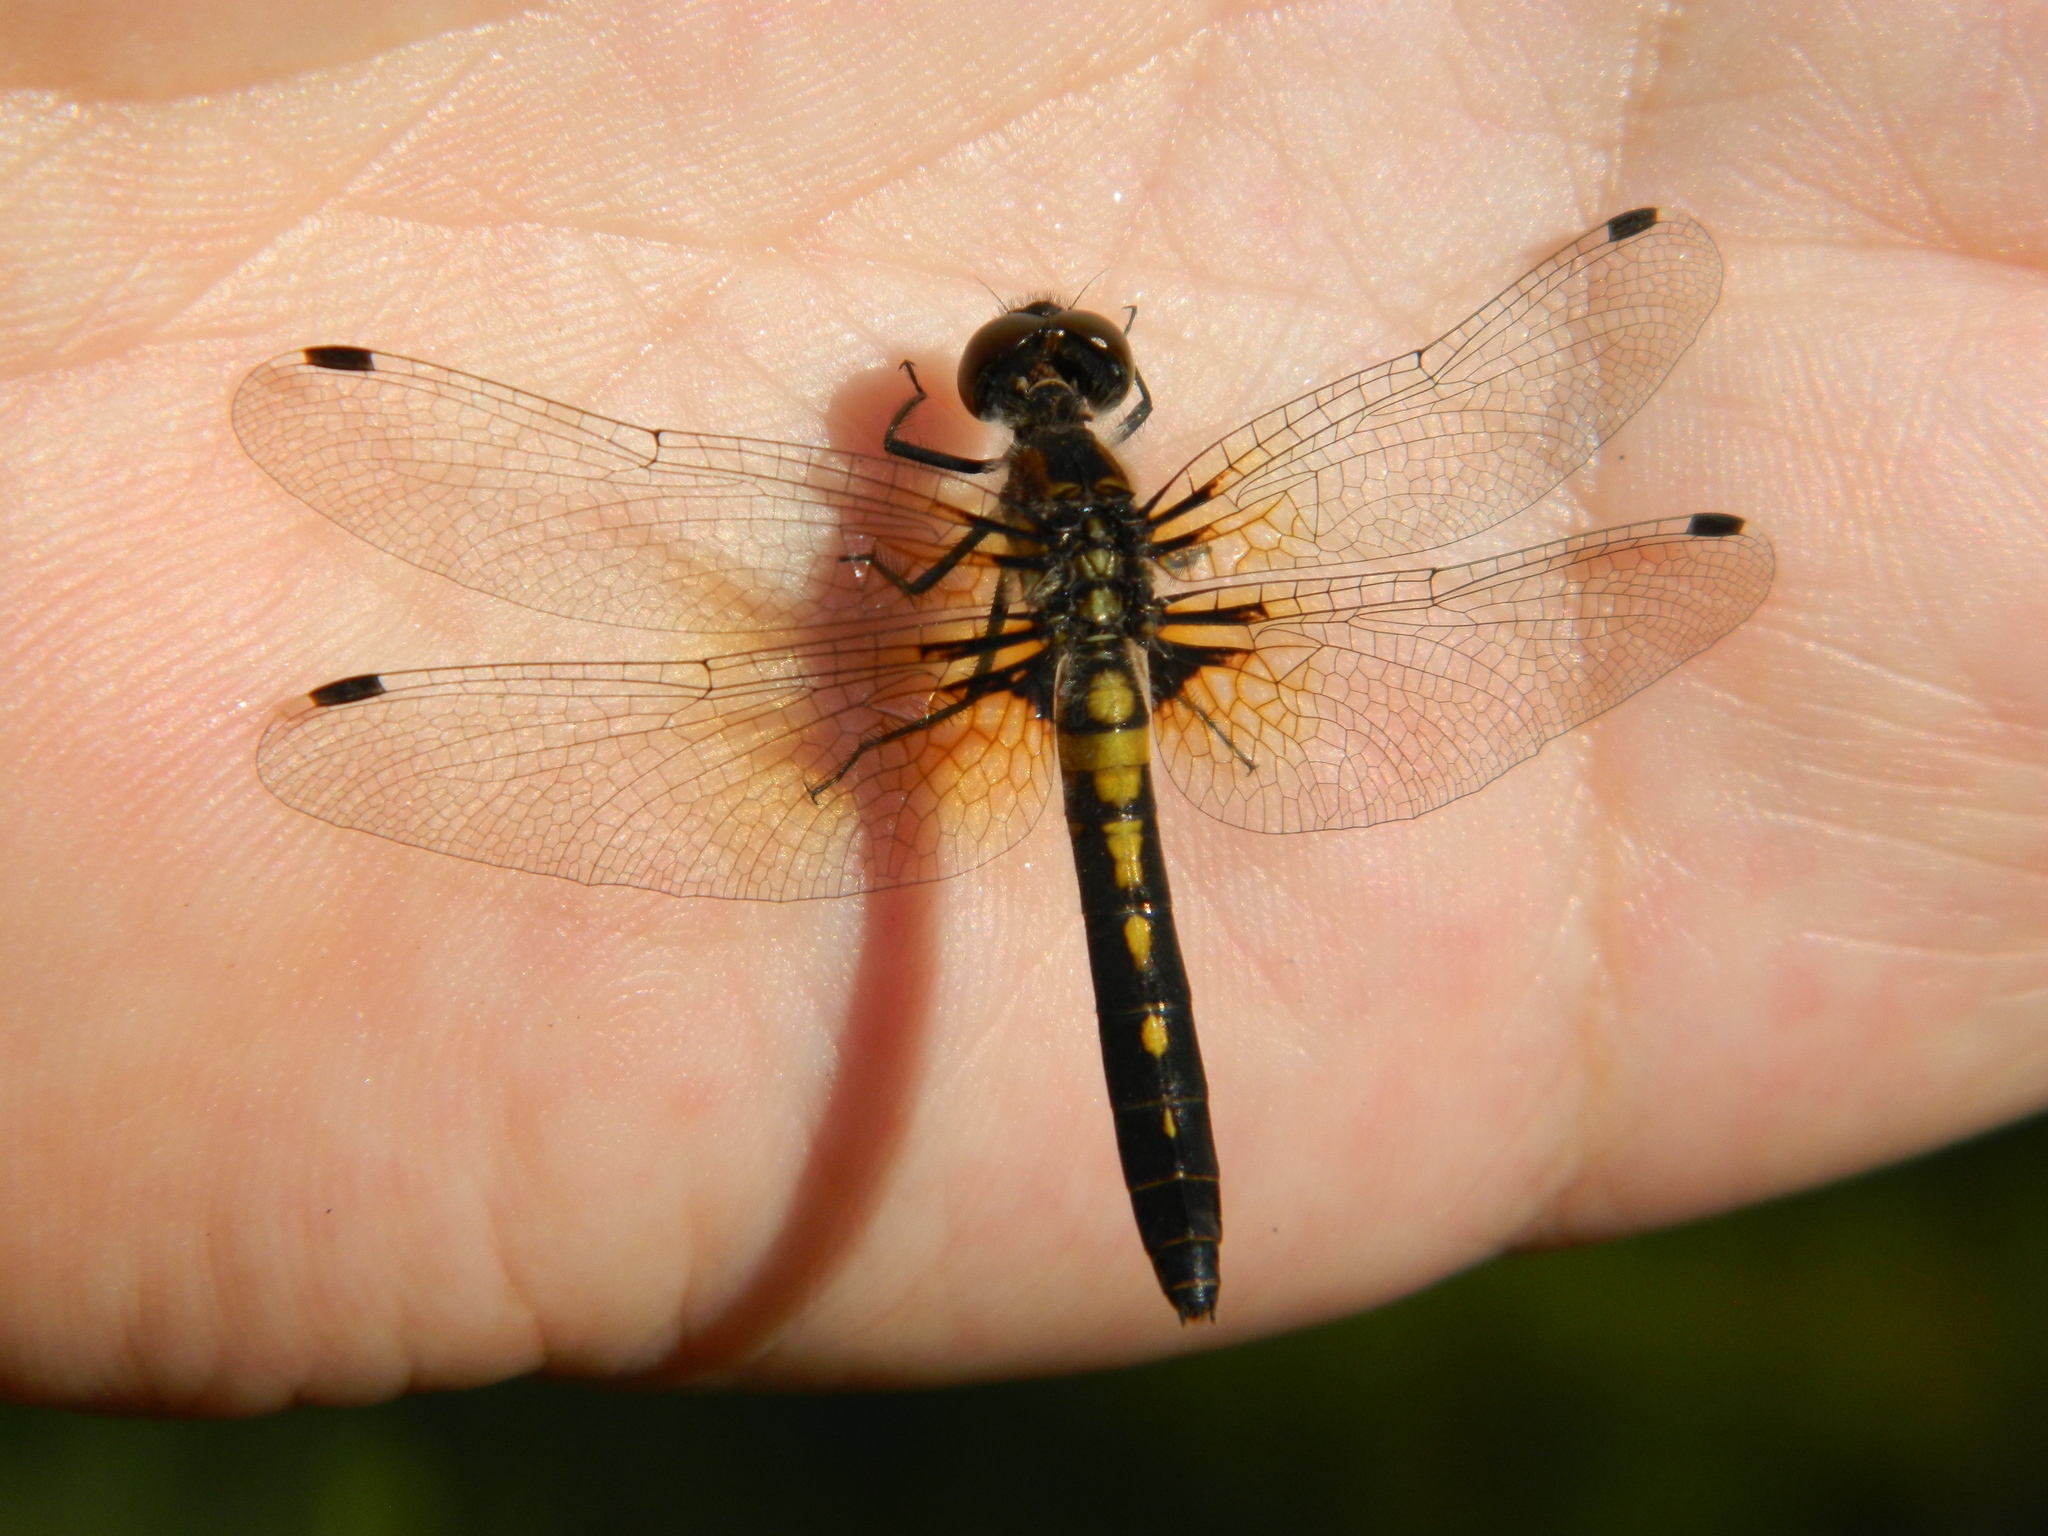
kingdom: Animalia
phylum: Arthropoda
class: Insecta
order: Odonata
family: Libellulidae
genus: Leucorrhinia
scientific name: Leucorrhinia frigida
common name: Frosted whiteface
